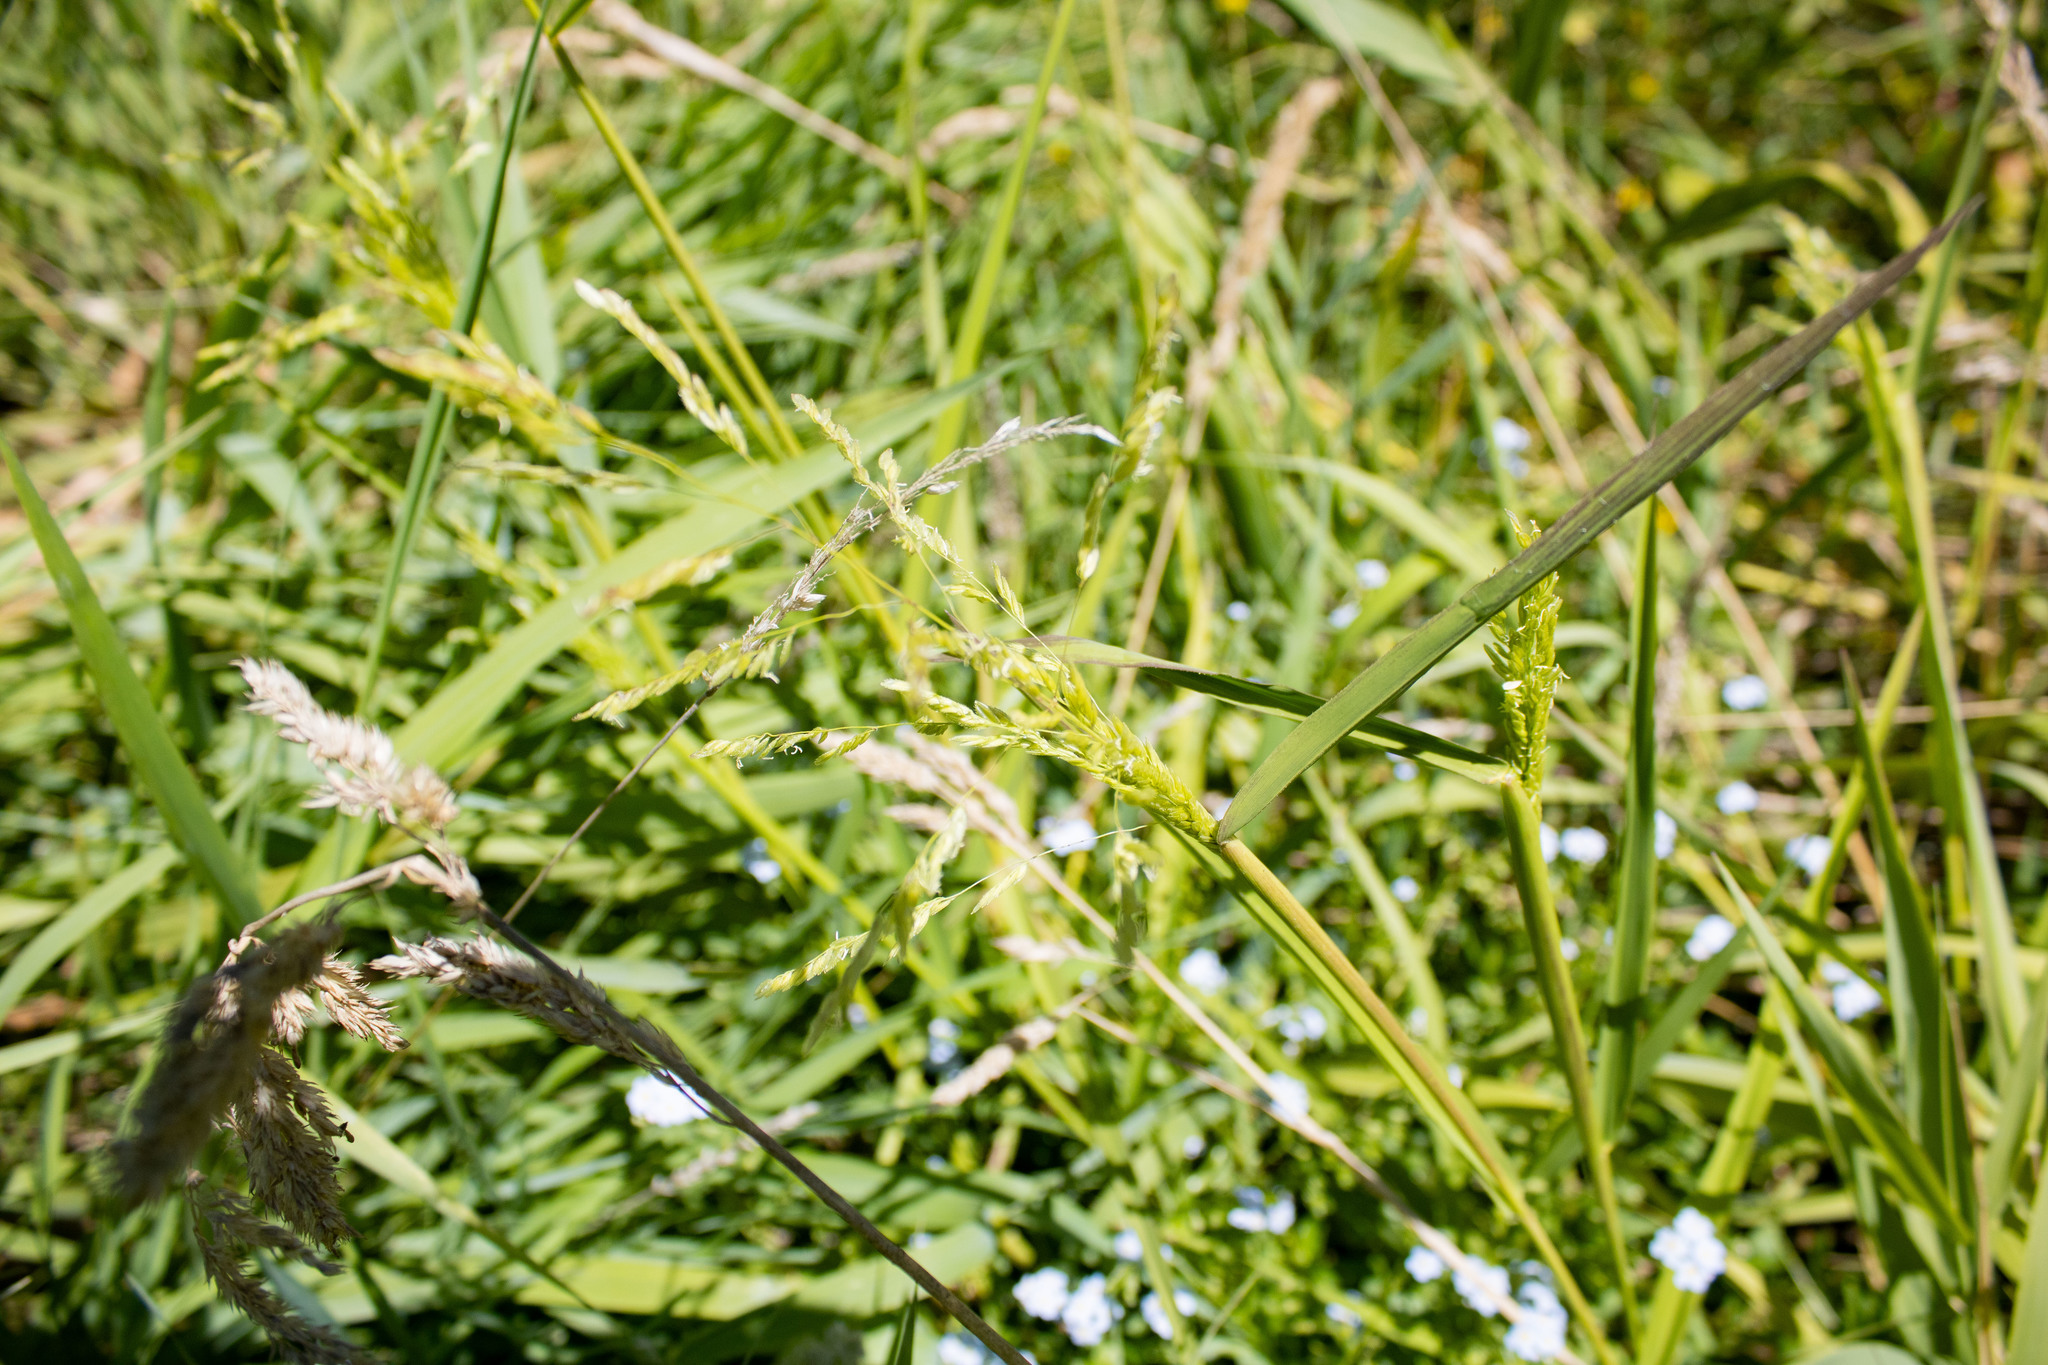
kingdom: Plantae
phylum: Tracheophyta
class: Liliopsida
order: Poales
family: Poaceae
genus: Leersia
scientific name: Leersia oryzoides
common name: Cut-grass
